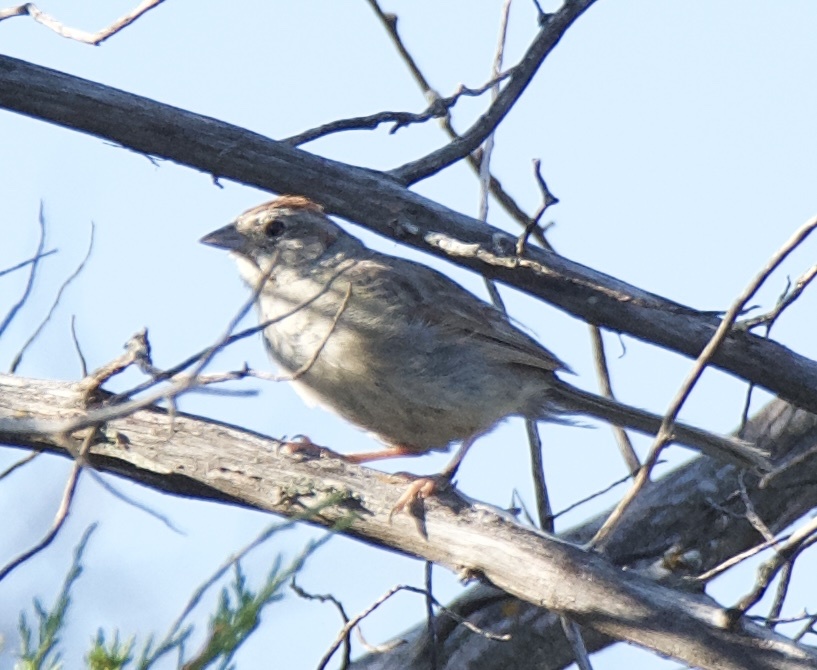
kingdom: Animalia
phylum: Chordata
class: Aves
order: Passeriformes
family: Passerellidae
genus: Aimophila
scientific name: Aimophila ruficeps
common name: Rufous-crowned sparrow
